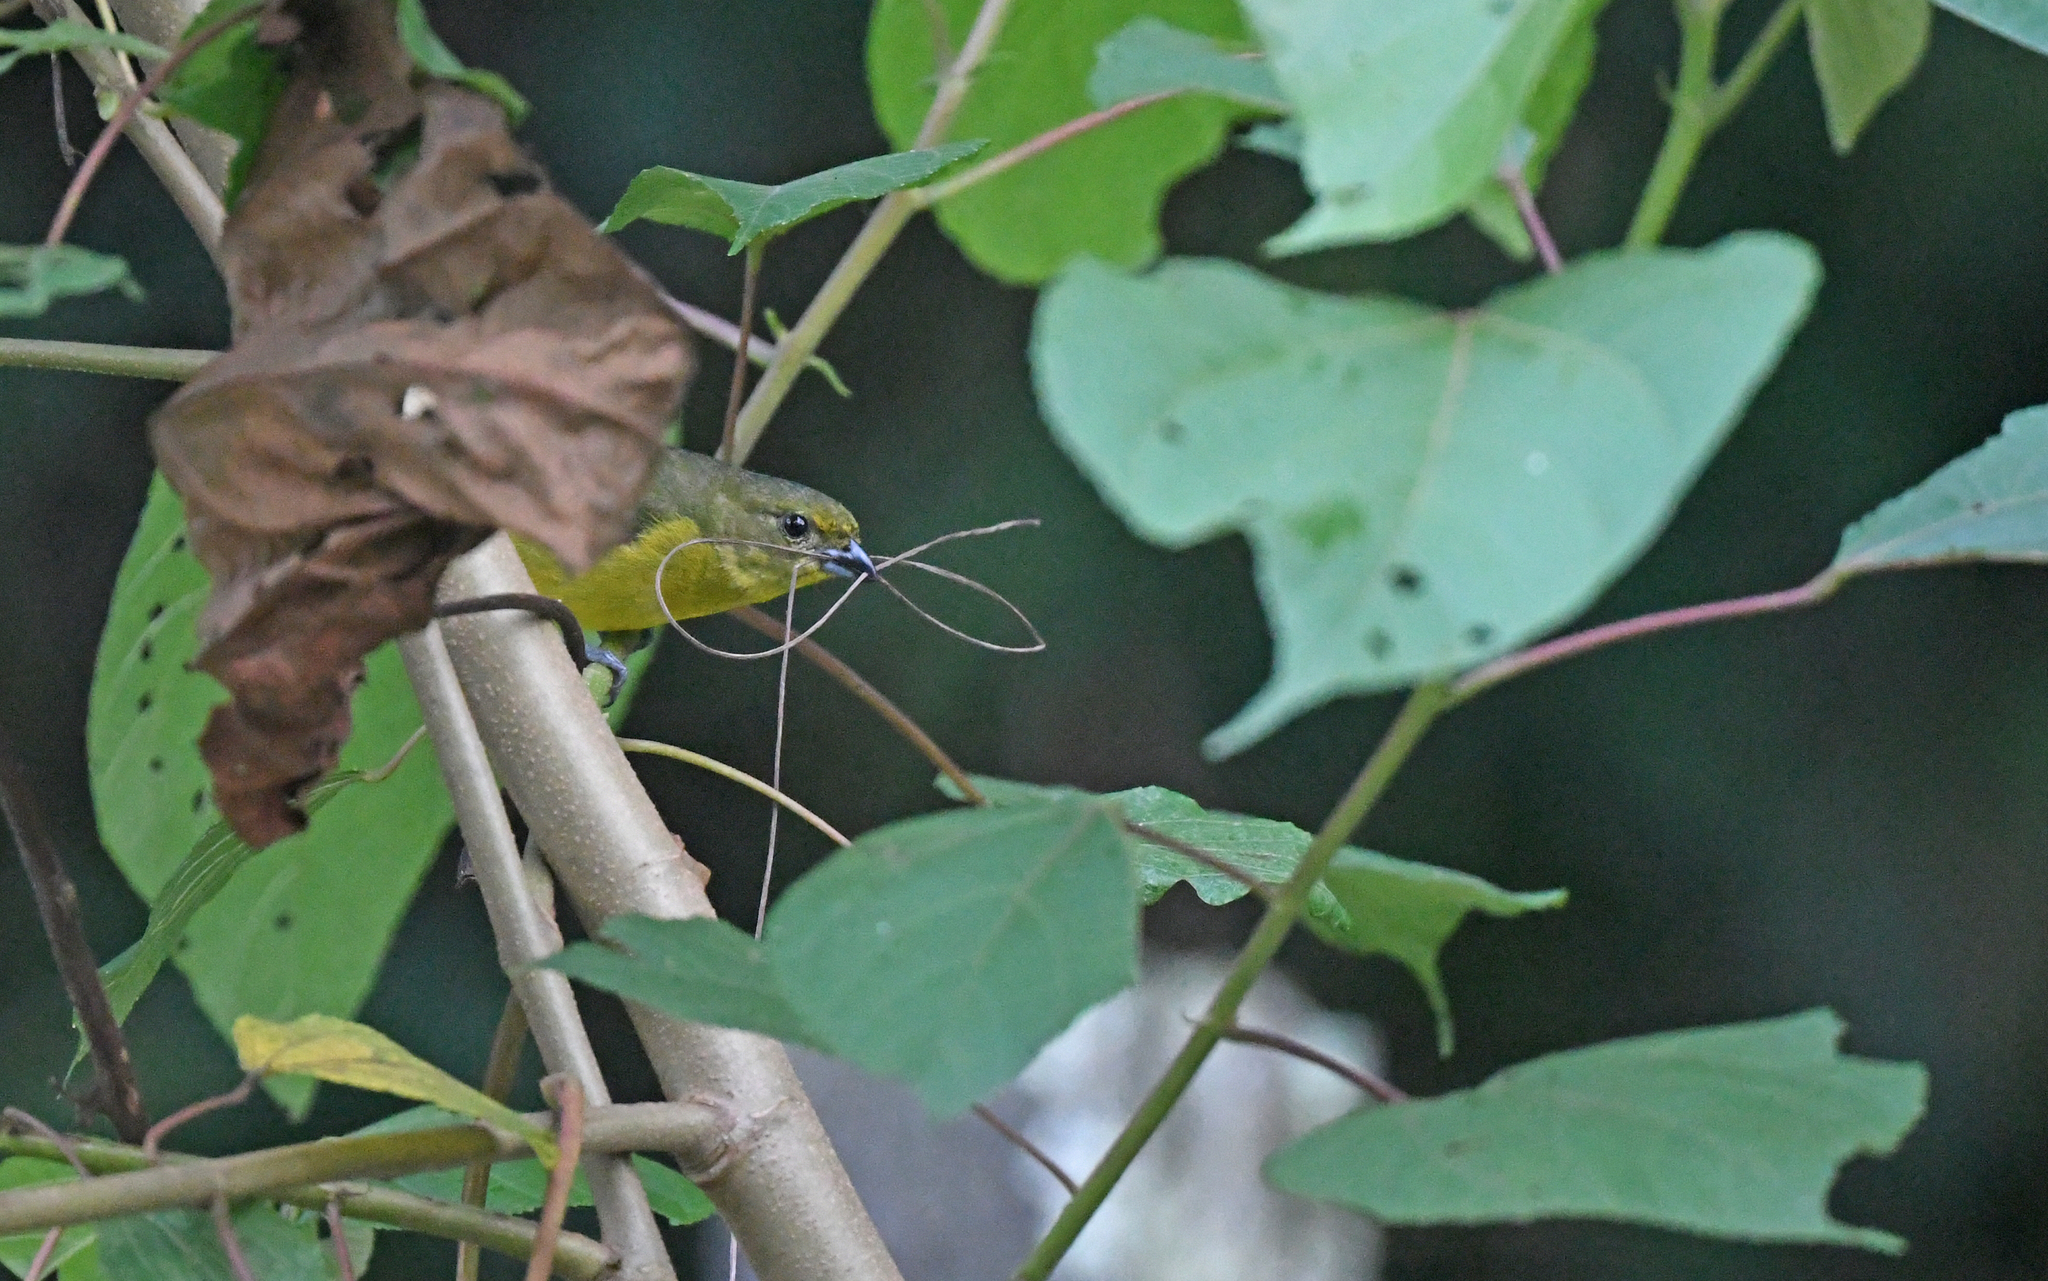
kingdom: Animalia
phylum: Chordata
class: Aves
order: Passeriformes
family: Fringillidae
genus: Euphonia
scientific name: Euphonia laniirostris
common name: Thick-billed euphonia
